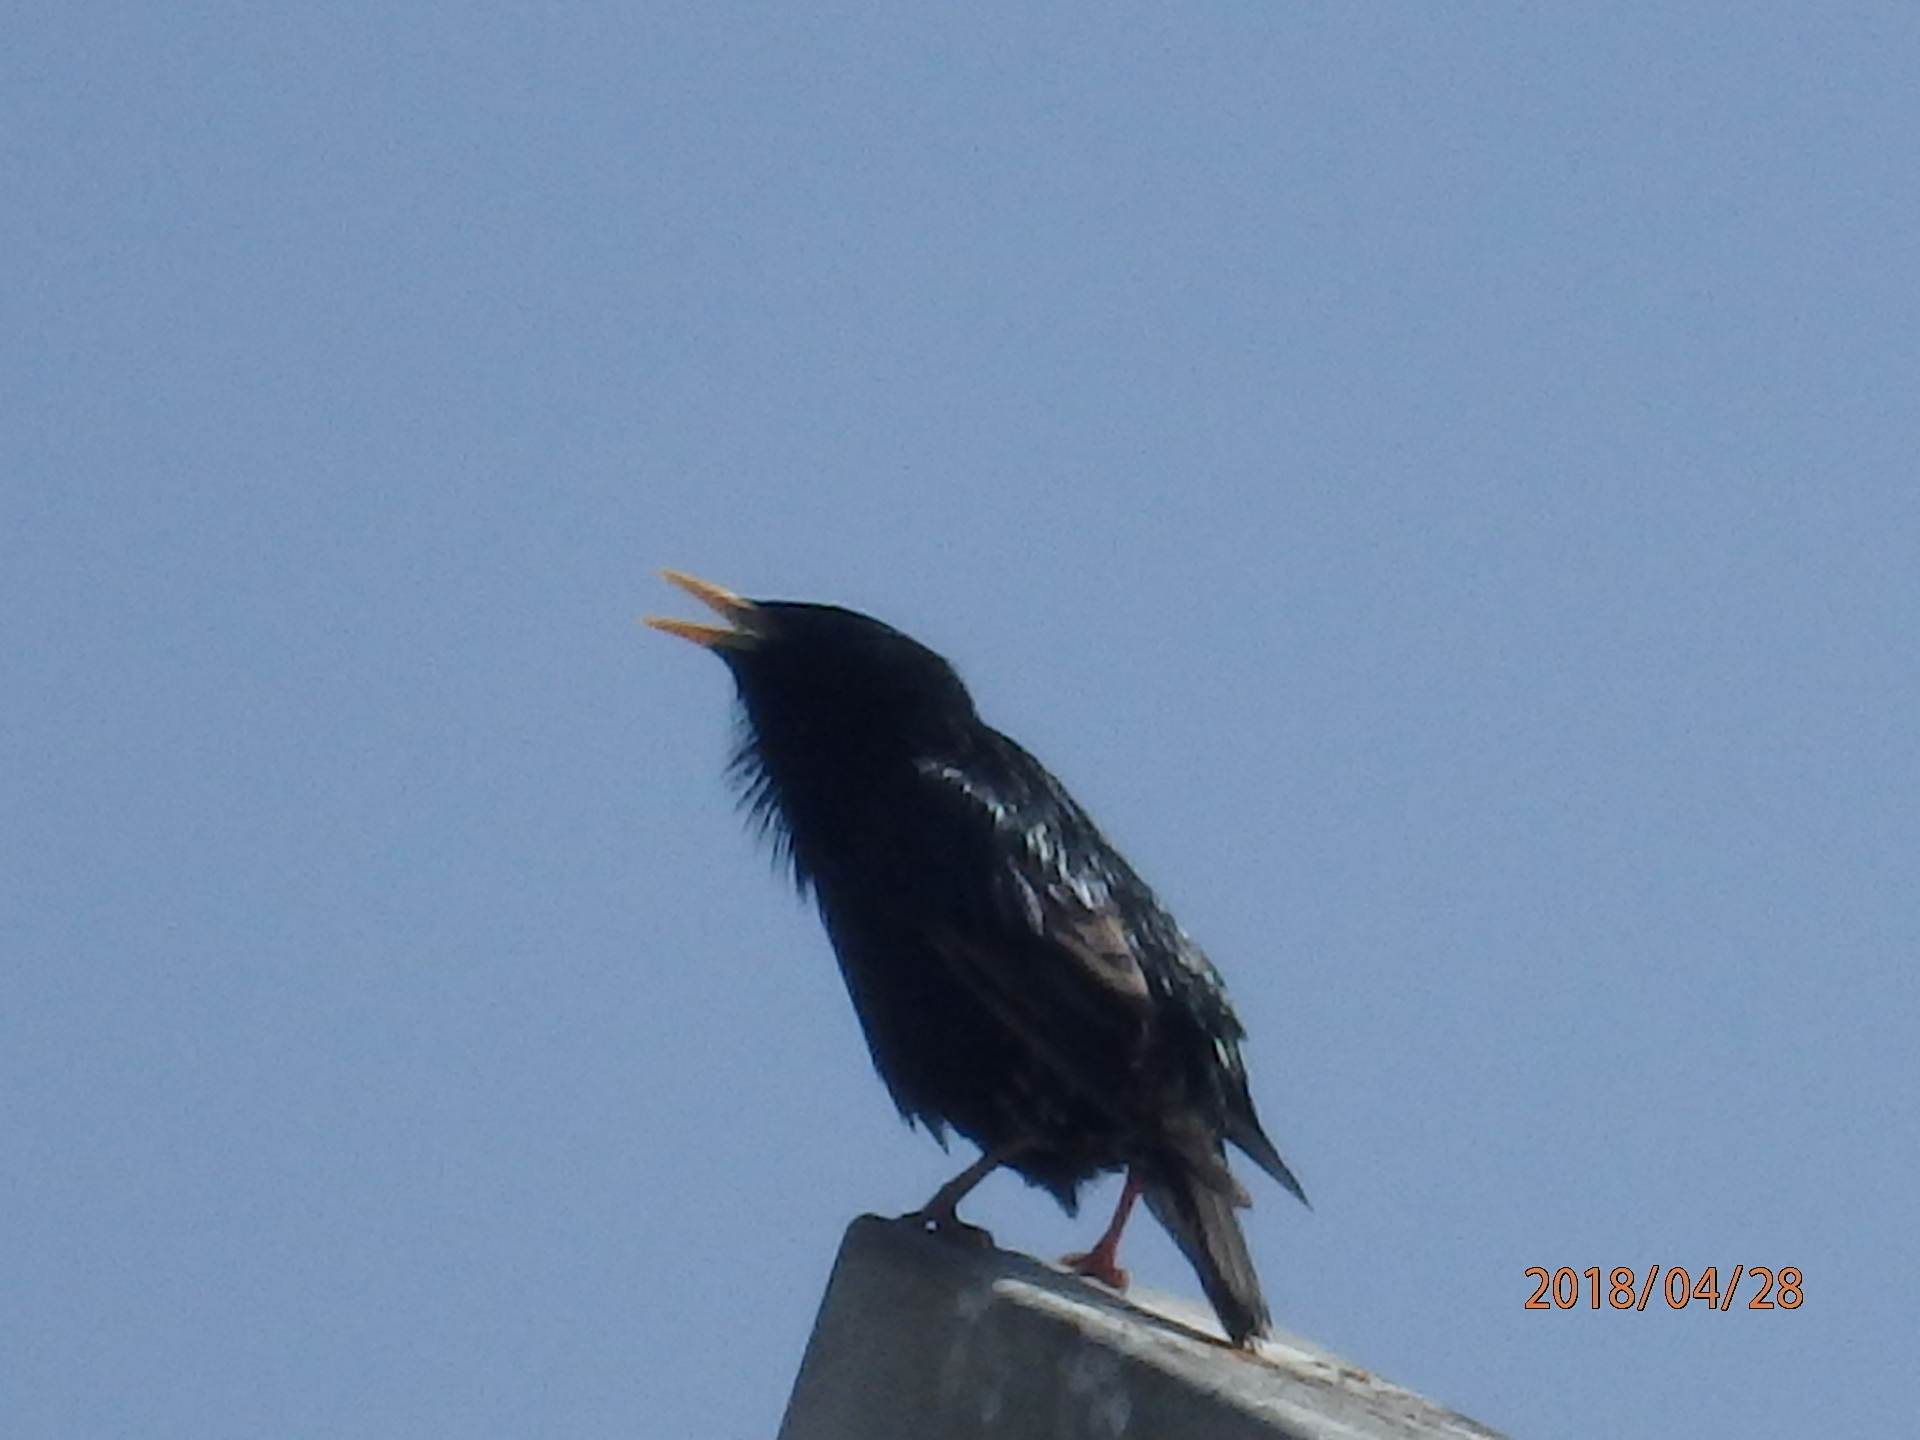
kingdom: Animalia
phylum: Chordata
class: Aves
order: Passeriformes
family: Sturnidae
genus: Sturnus
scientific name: Sturnus vulgaris
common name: Common starling
